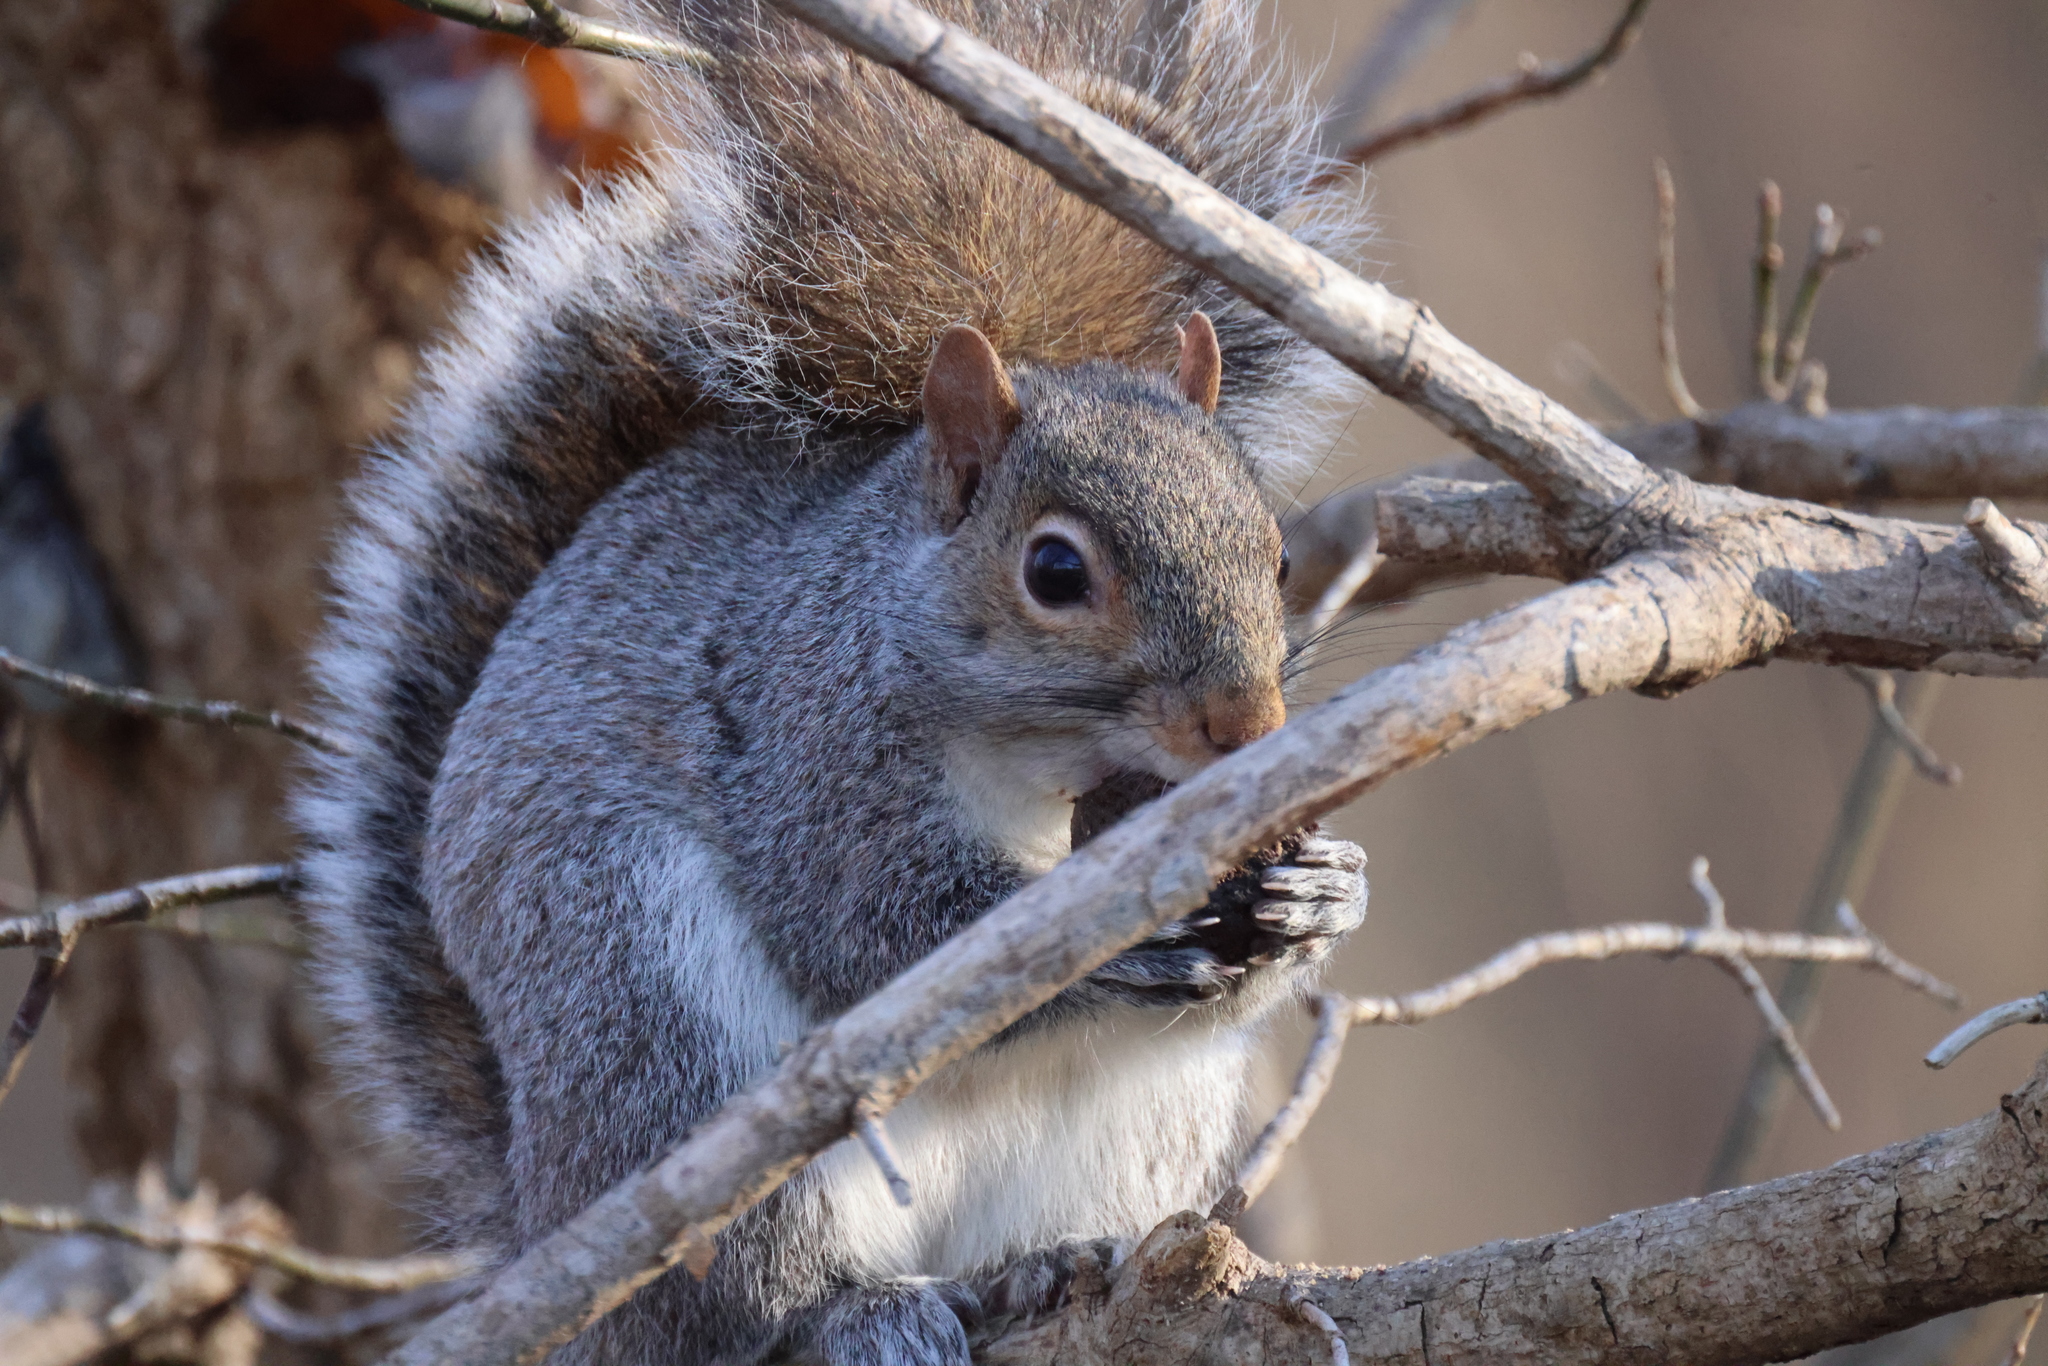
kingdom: Animalia
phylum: Chordata
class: Mammalia
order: Rodentia
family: Sciuridae
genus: Sciurus
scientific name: Sciurus carolinensis
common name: Eastern gray squirrel
